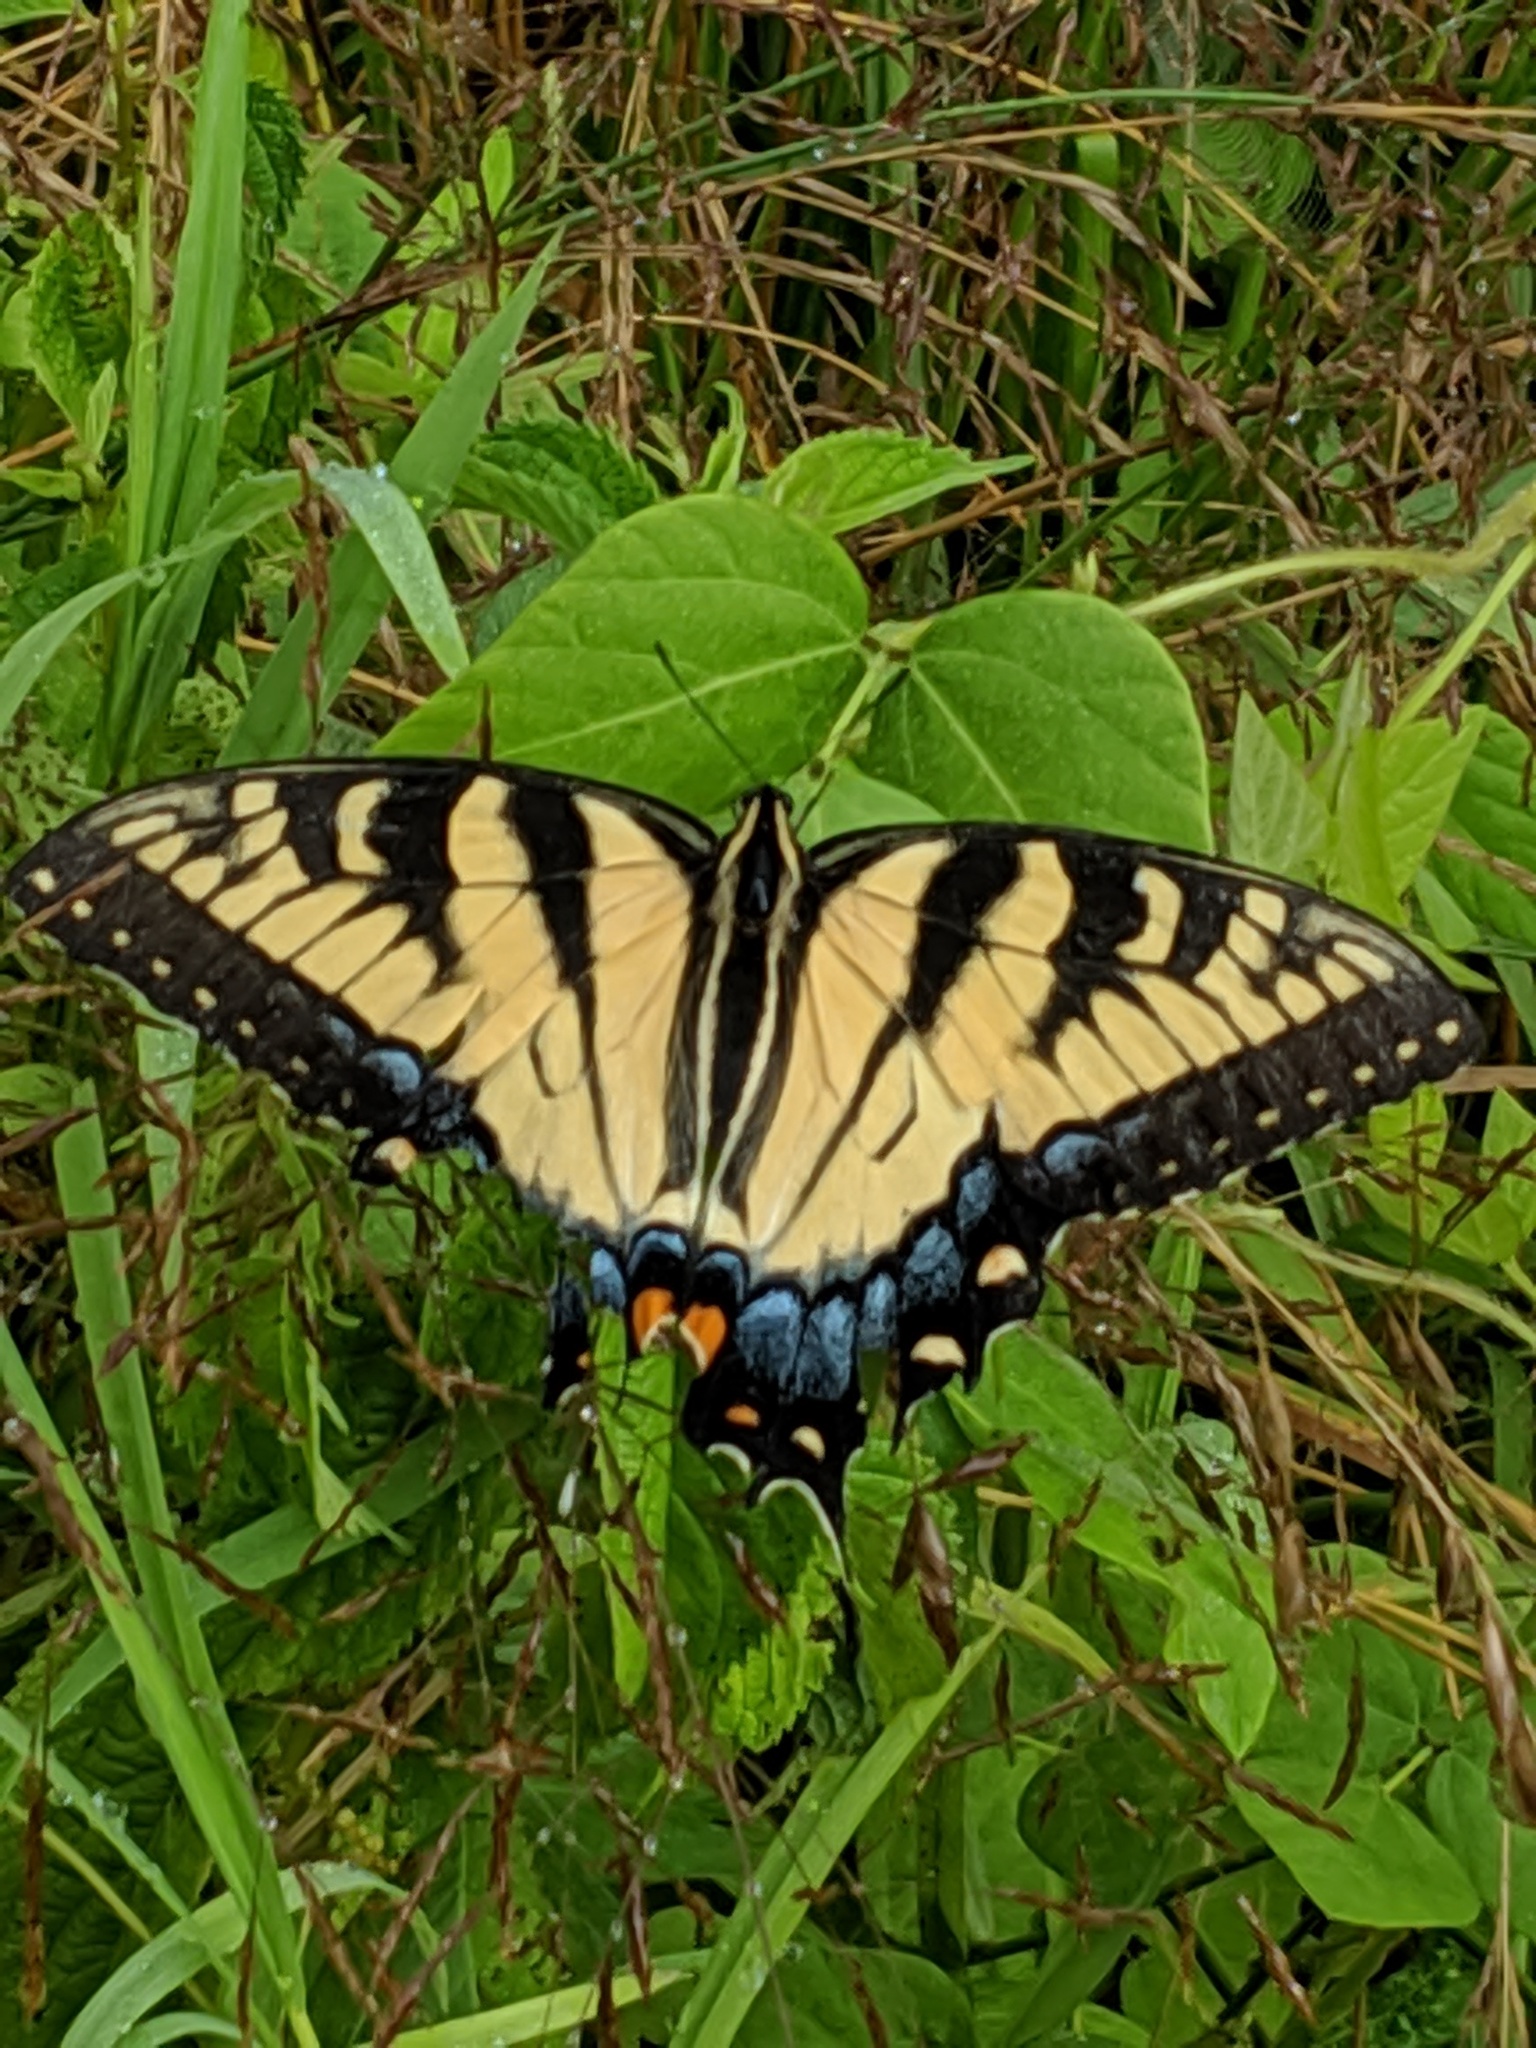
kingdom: Animalia
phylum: Arthropoda
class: Insecta
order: Lepidoptera
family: Papilionidae
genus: Papilio
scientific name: Papilio glaucus
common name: Tiger swallowtail
